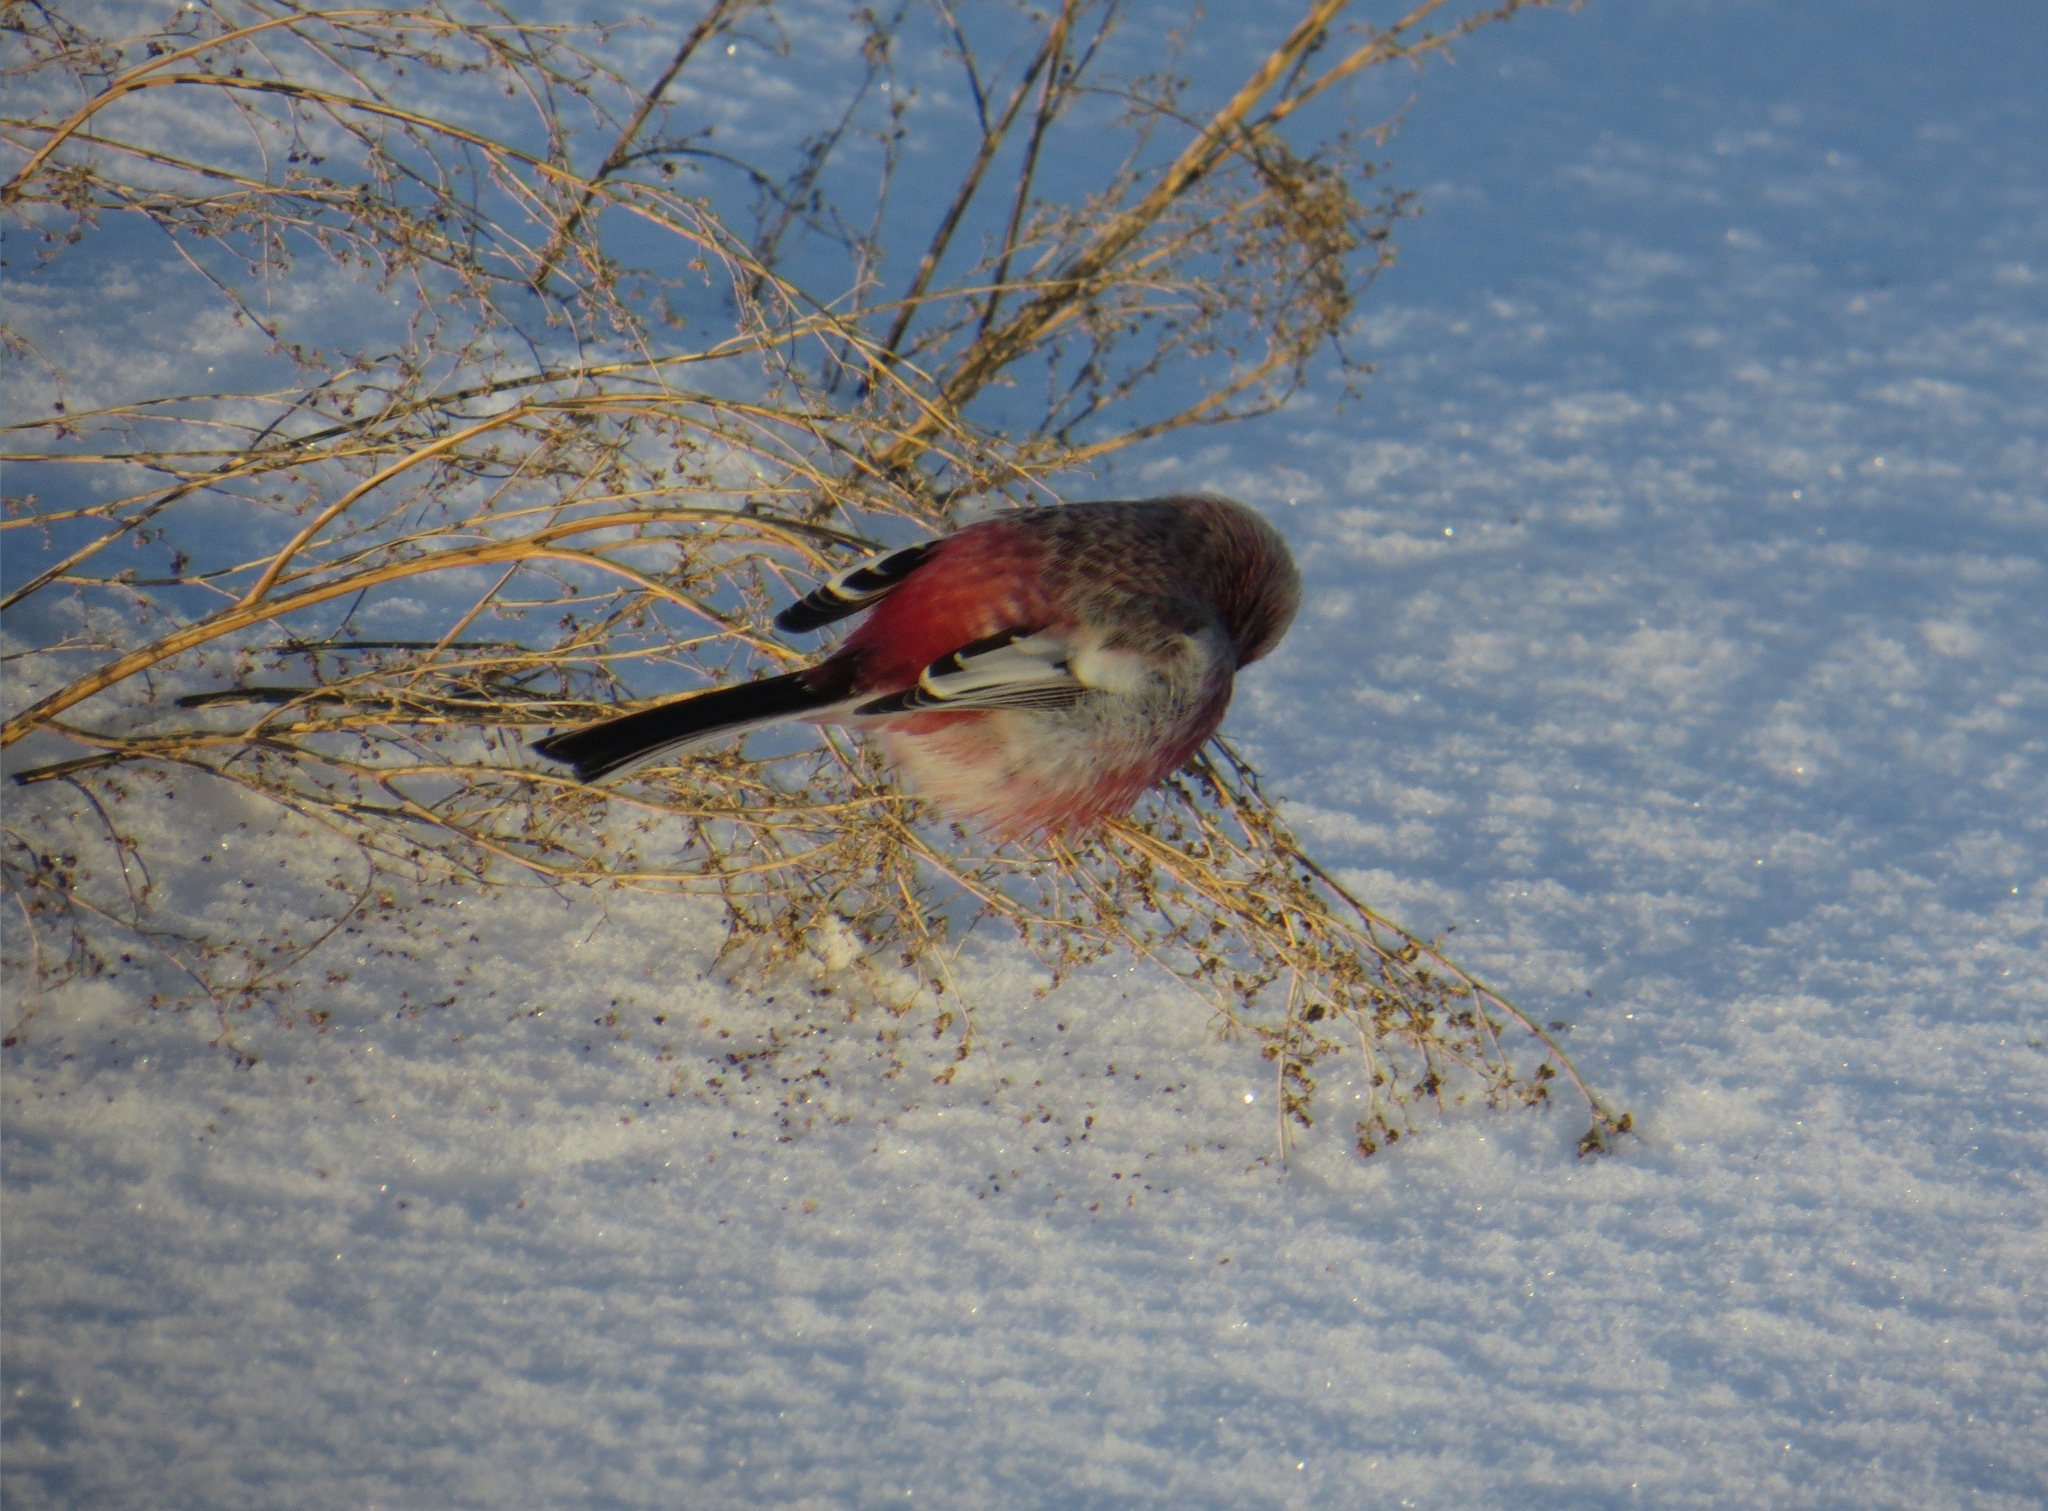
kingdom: Animalia
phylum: Chordata
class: Aves
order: Passeriformes
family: Fringillidae
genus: Carpodacus
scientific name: Carpodacus sibiricus
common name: Long-tailed rosefinch
